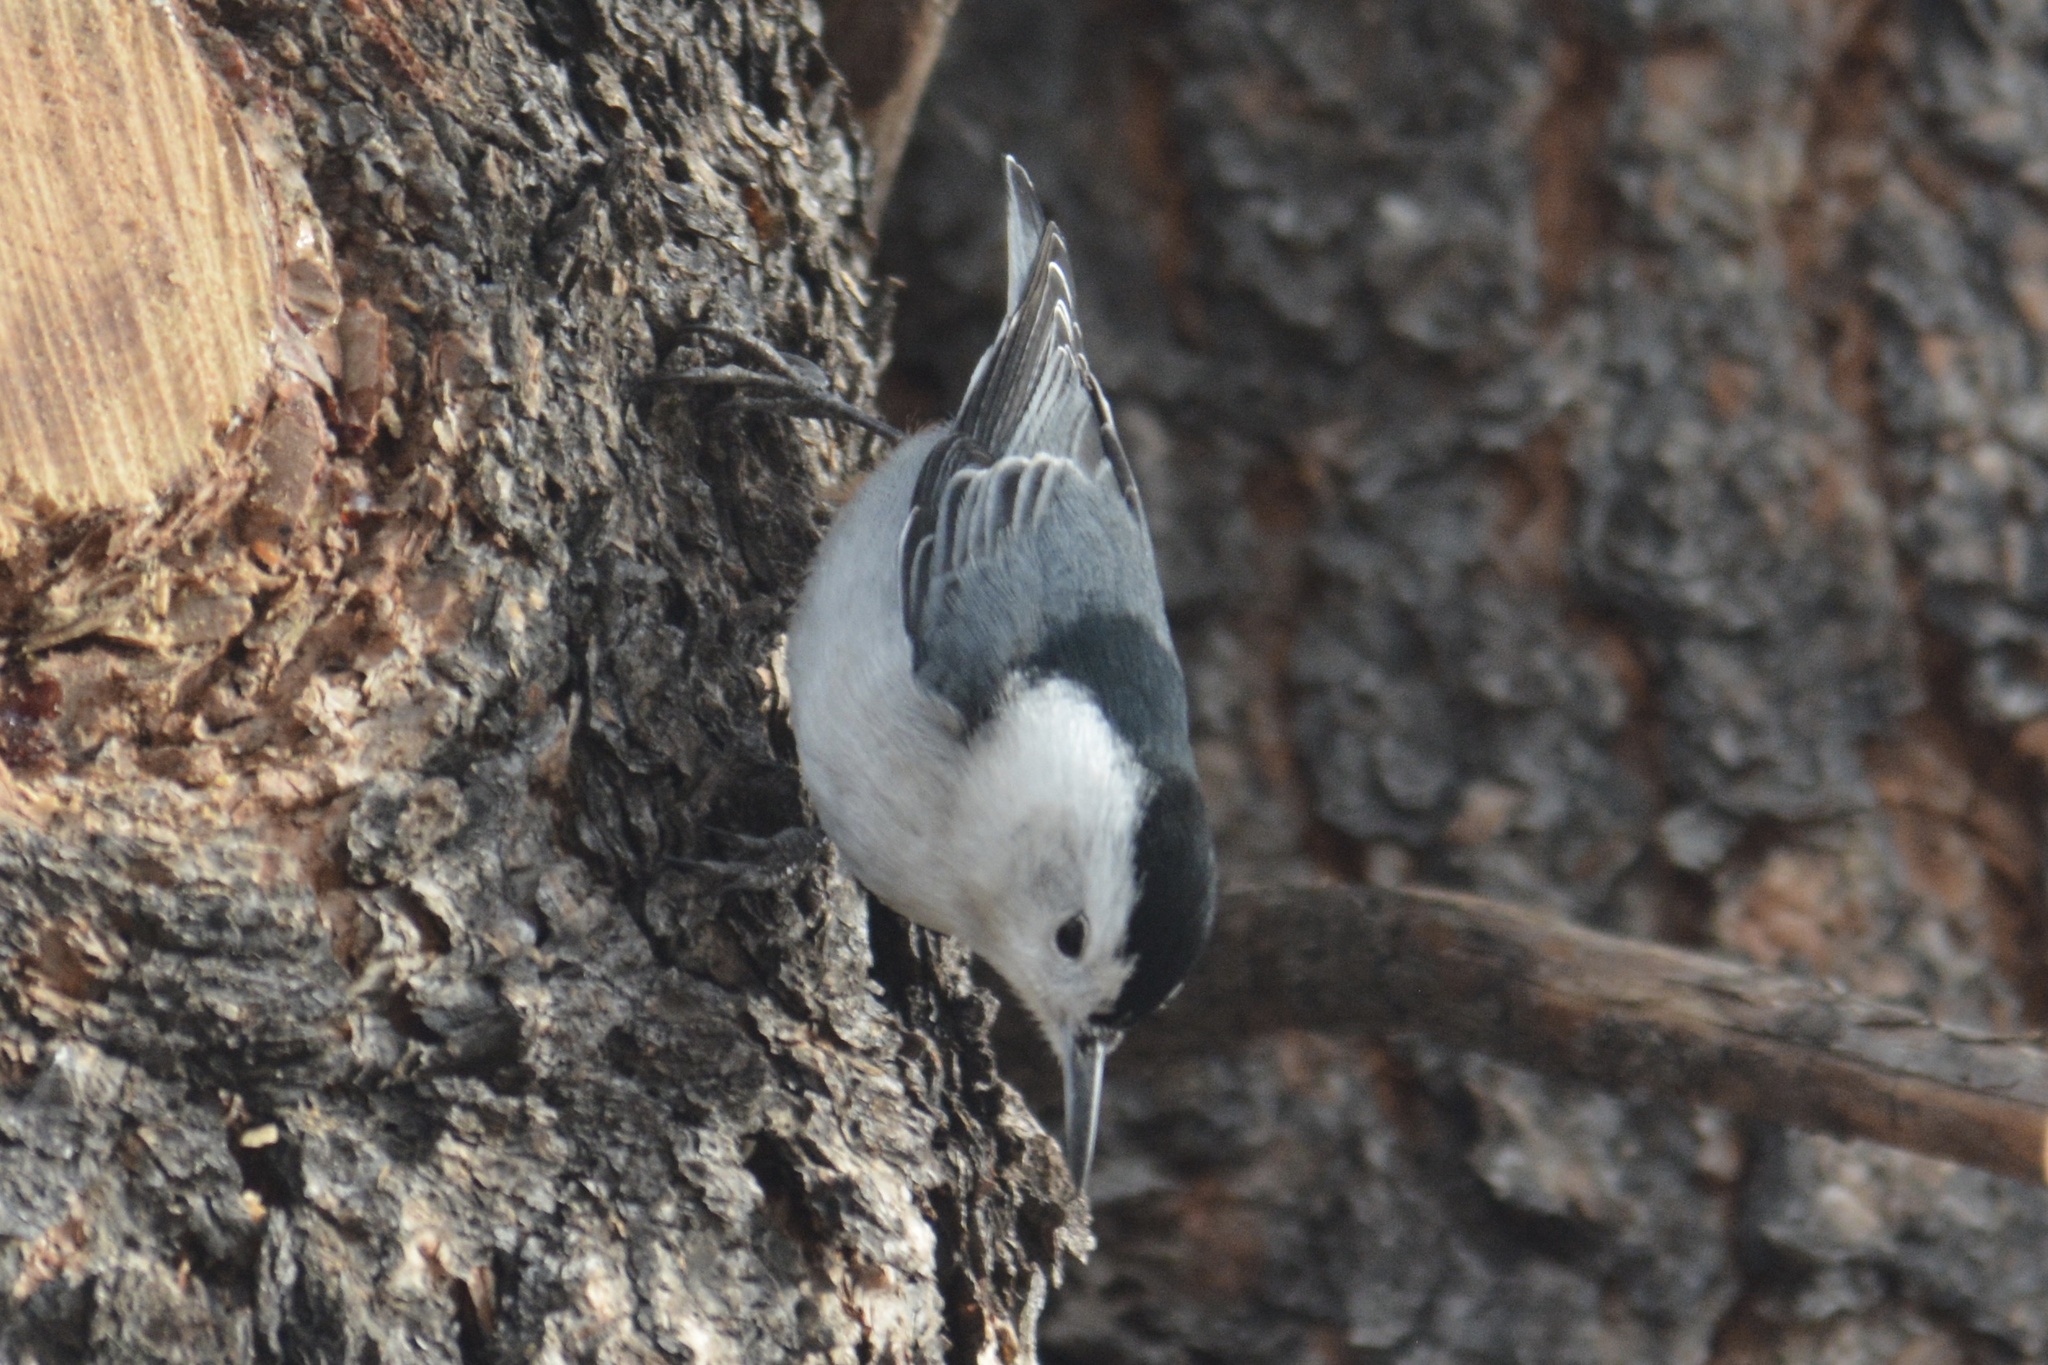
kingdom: Animalia
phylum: Chordata
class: Aves
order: Passeriformes
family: Sittidae
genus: Sitta
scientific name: Sitta carolinensis
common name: White-breasted nuthatch
